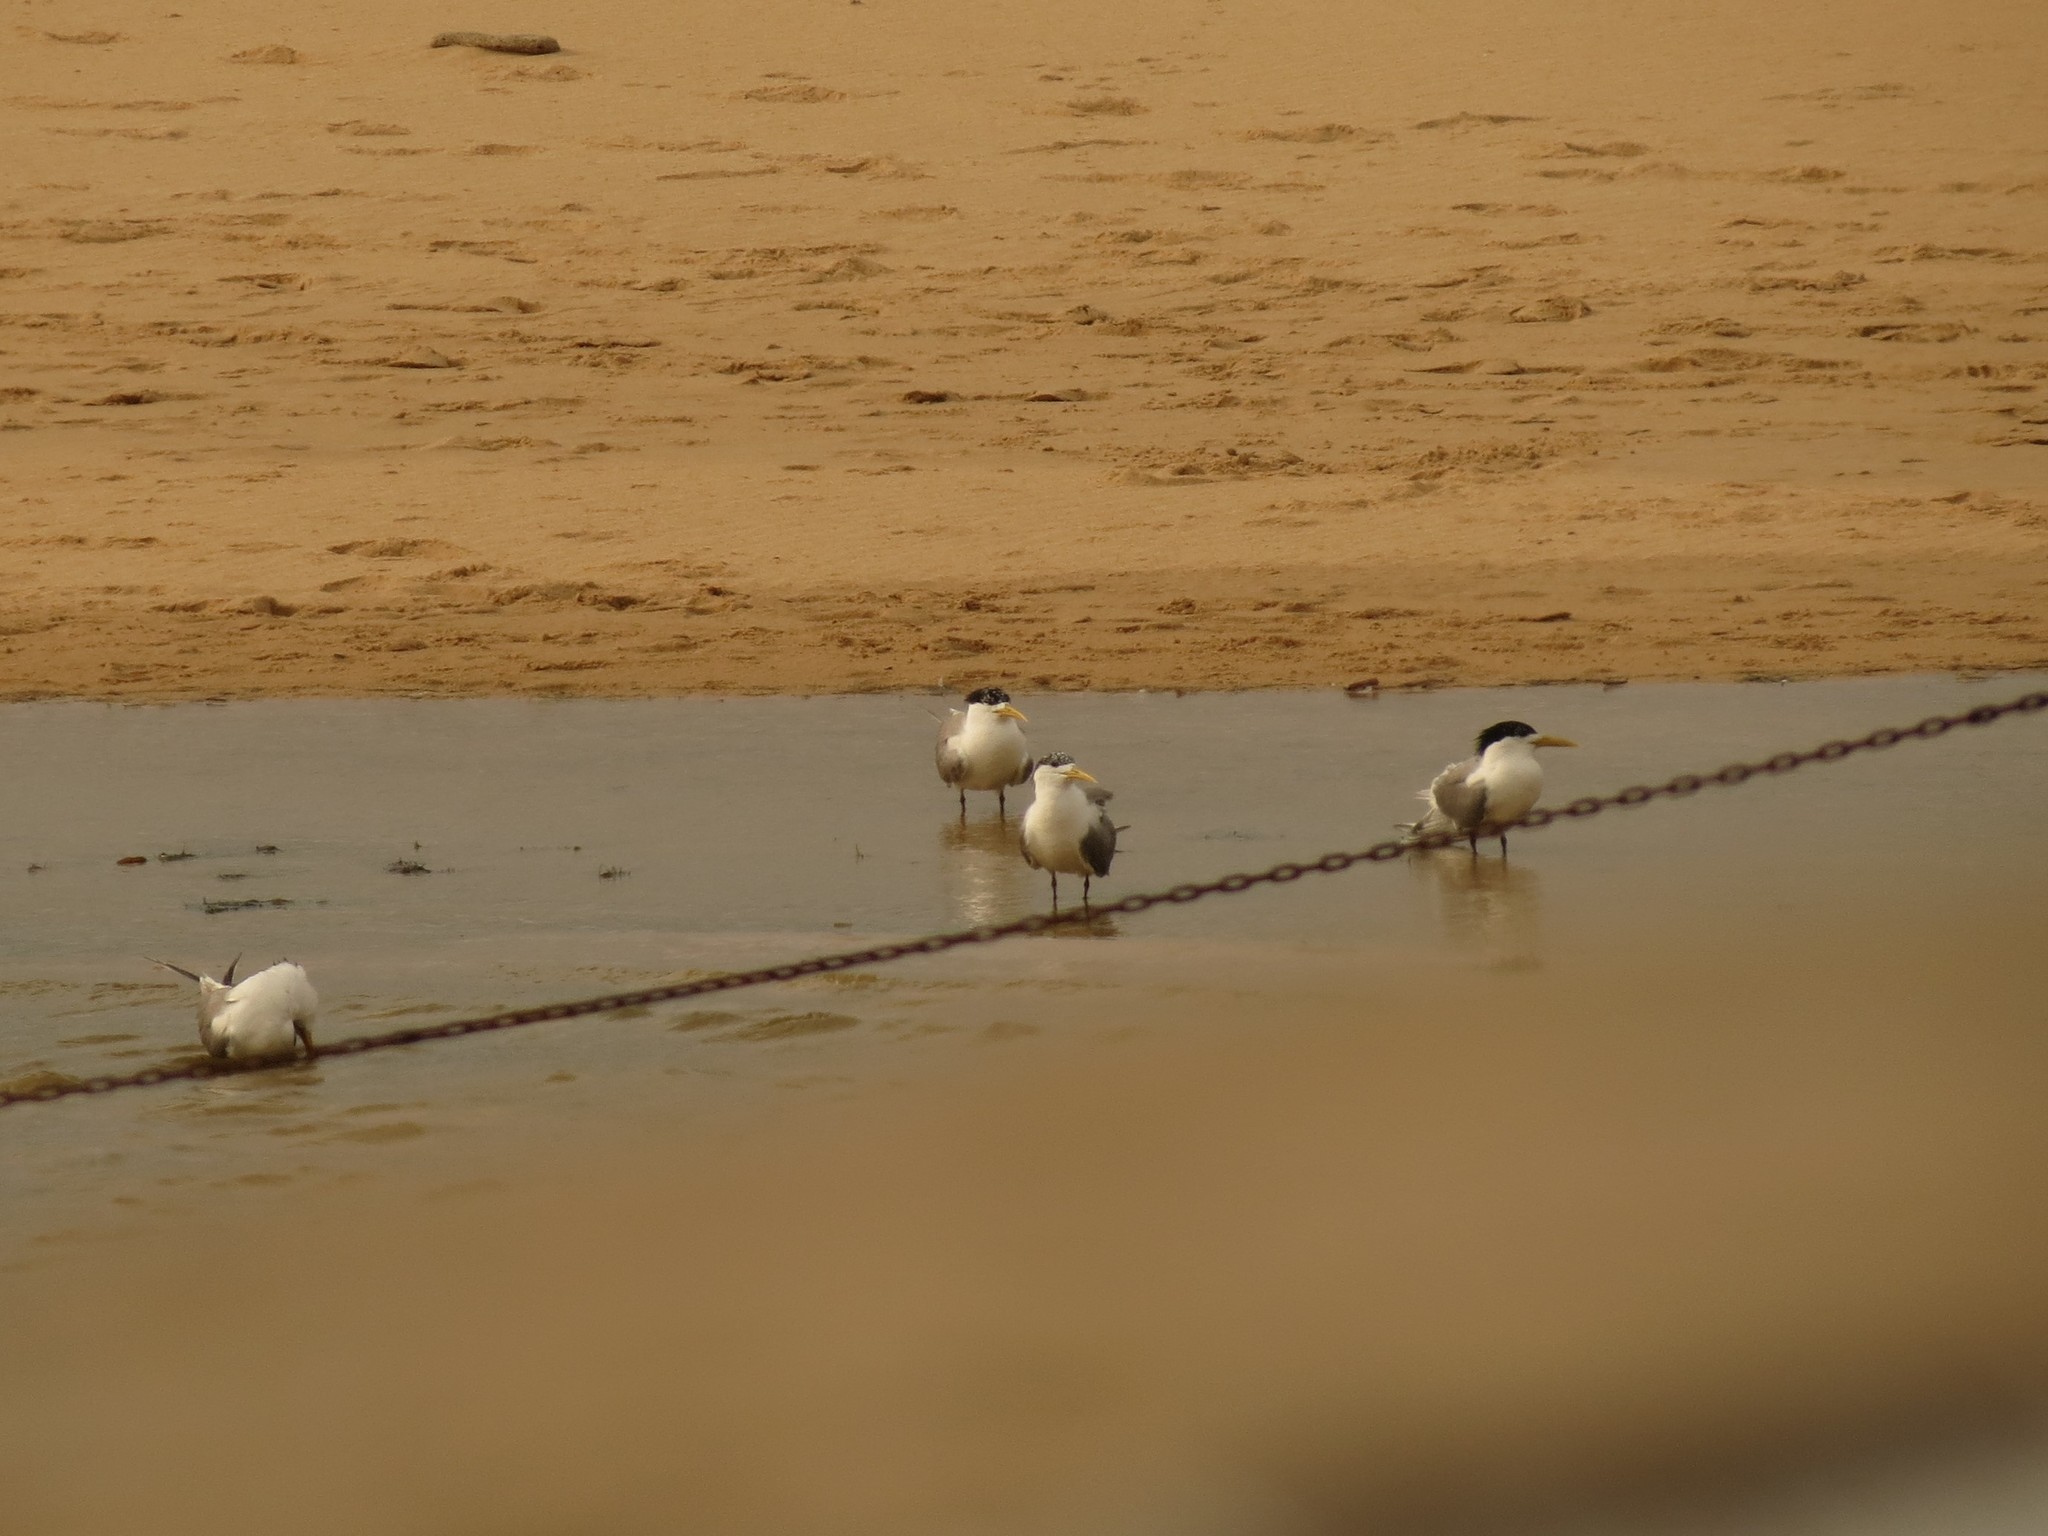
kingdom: Animalia
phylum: Chordata
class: Aves
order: Charadriiformes
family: Laridae
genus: Thalasseus
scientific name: Thalasseus bergii
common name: Greater crested tern
